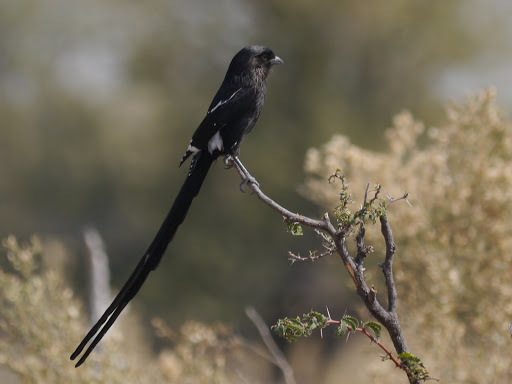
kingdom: Animalia
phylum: Chordata
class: Aves
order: Passeriformes
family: Laniidae
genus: Urolestes
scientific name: Urolestes melanoleucus
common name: Magpie shrike
